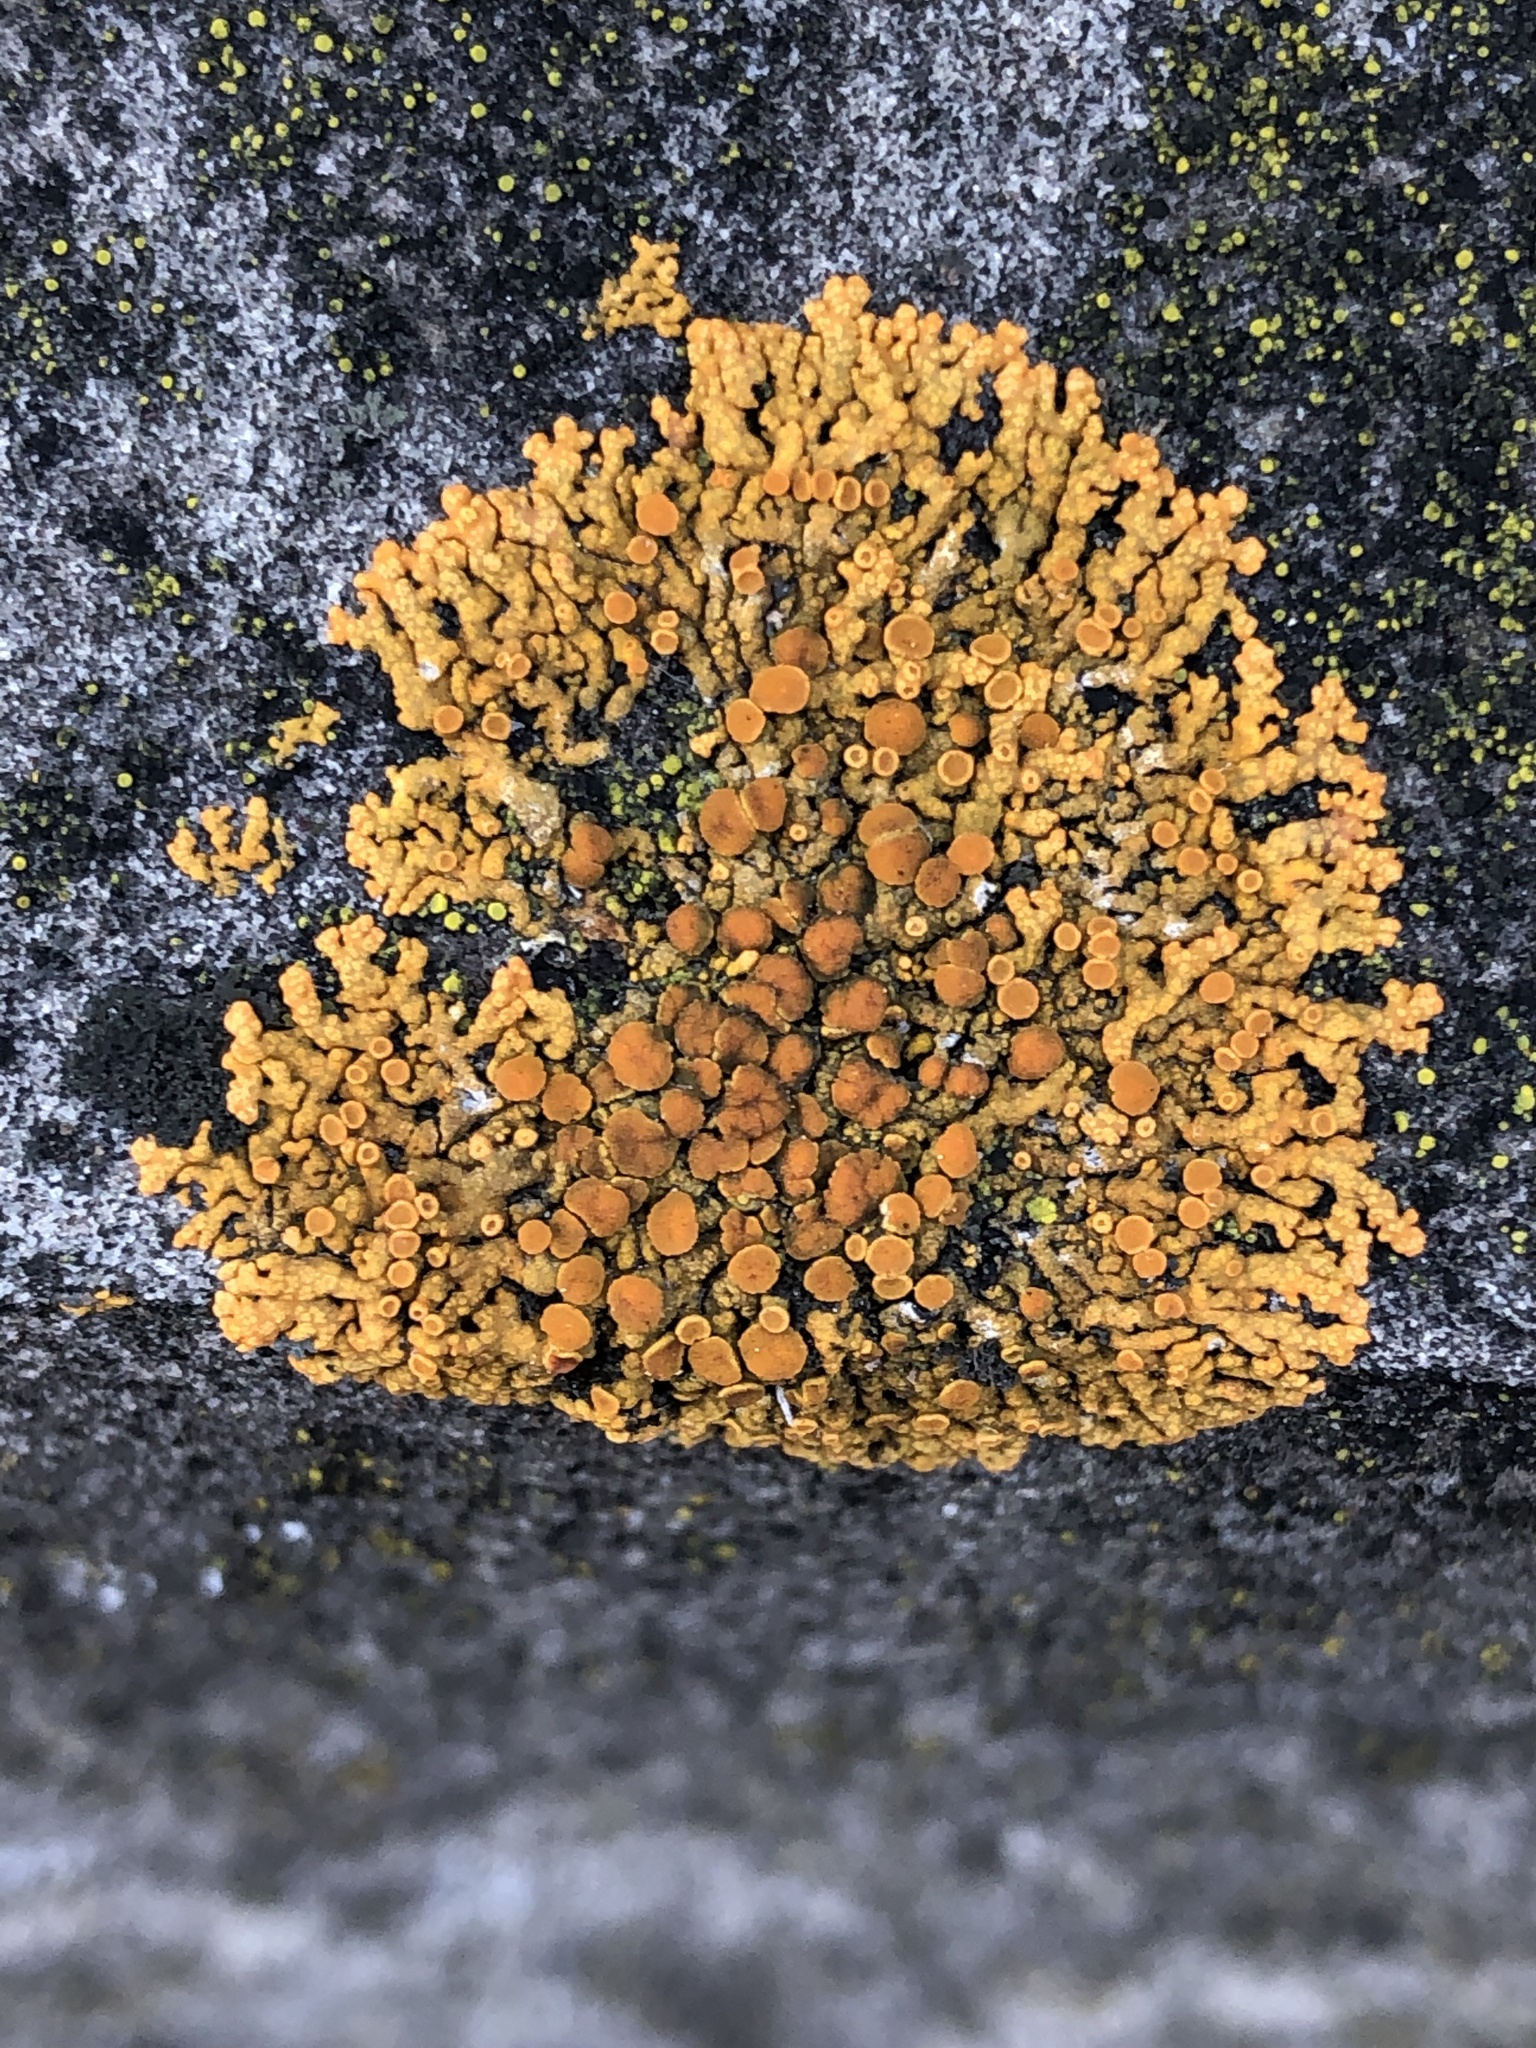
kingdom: Fungi
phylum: Ascomycota
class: Lecanoromycetes
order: Teloschistales
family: Teloschistaceae
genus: Xanthoria
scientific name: Xanthoria elegans
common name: Elegant sunburst lichen
